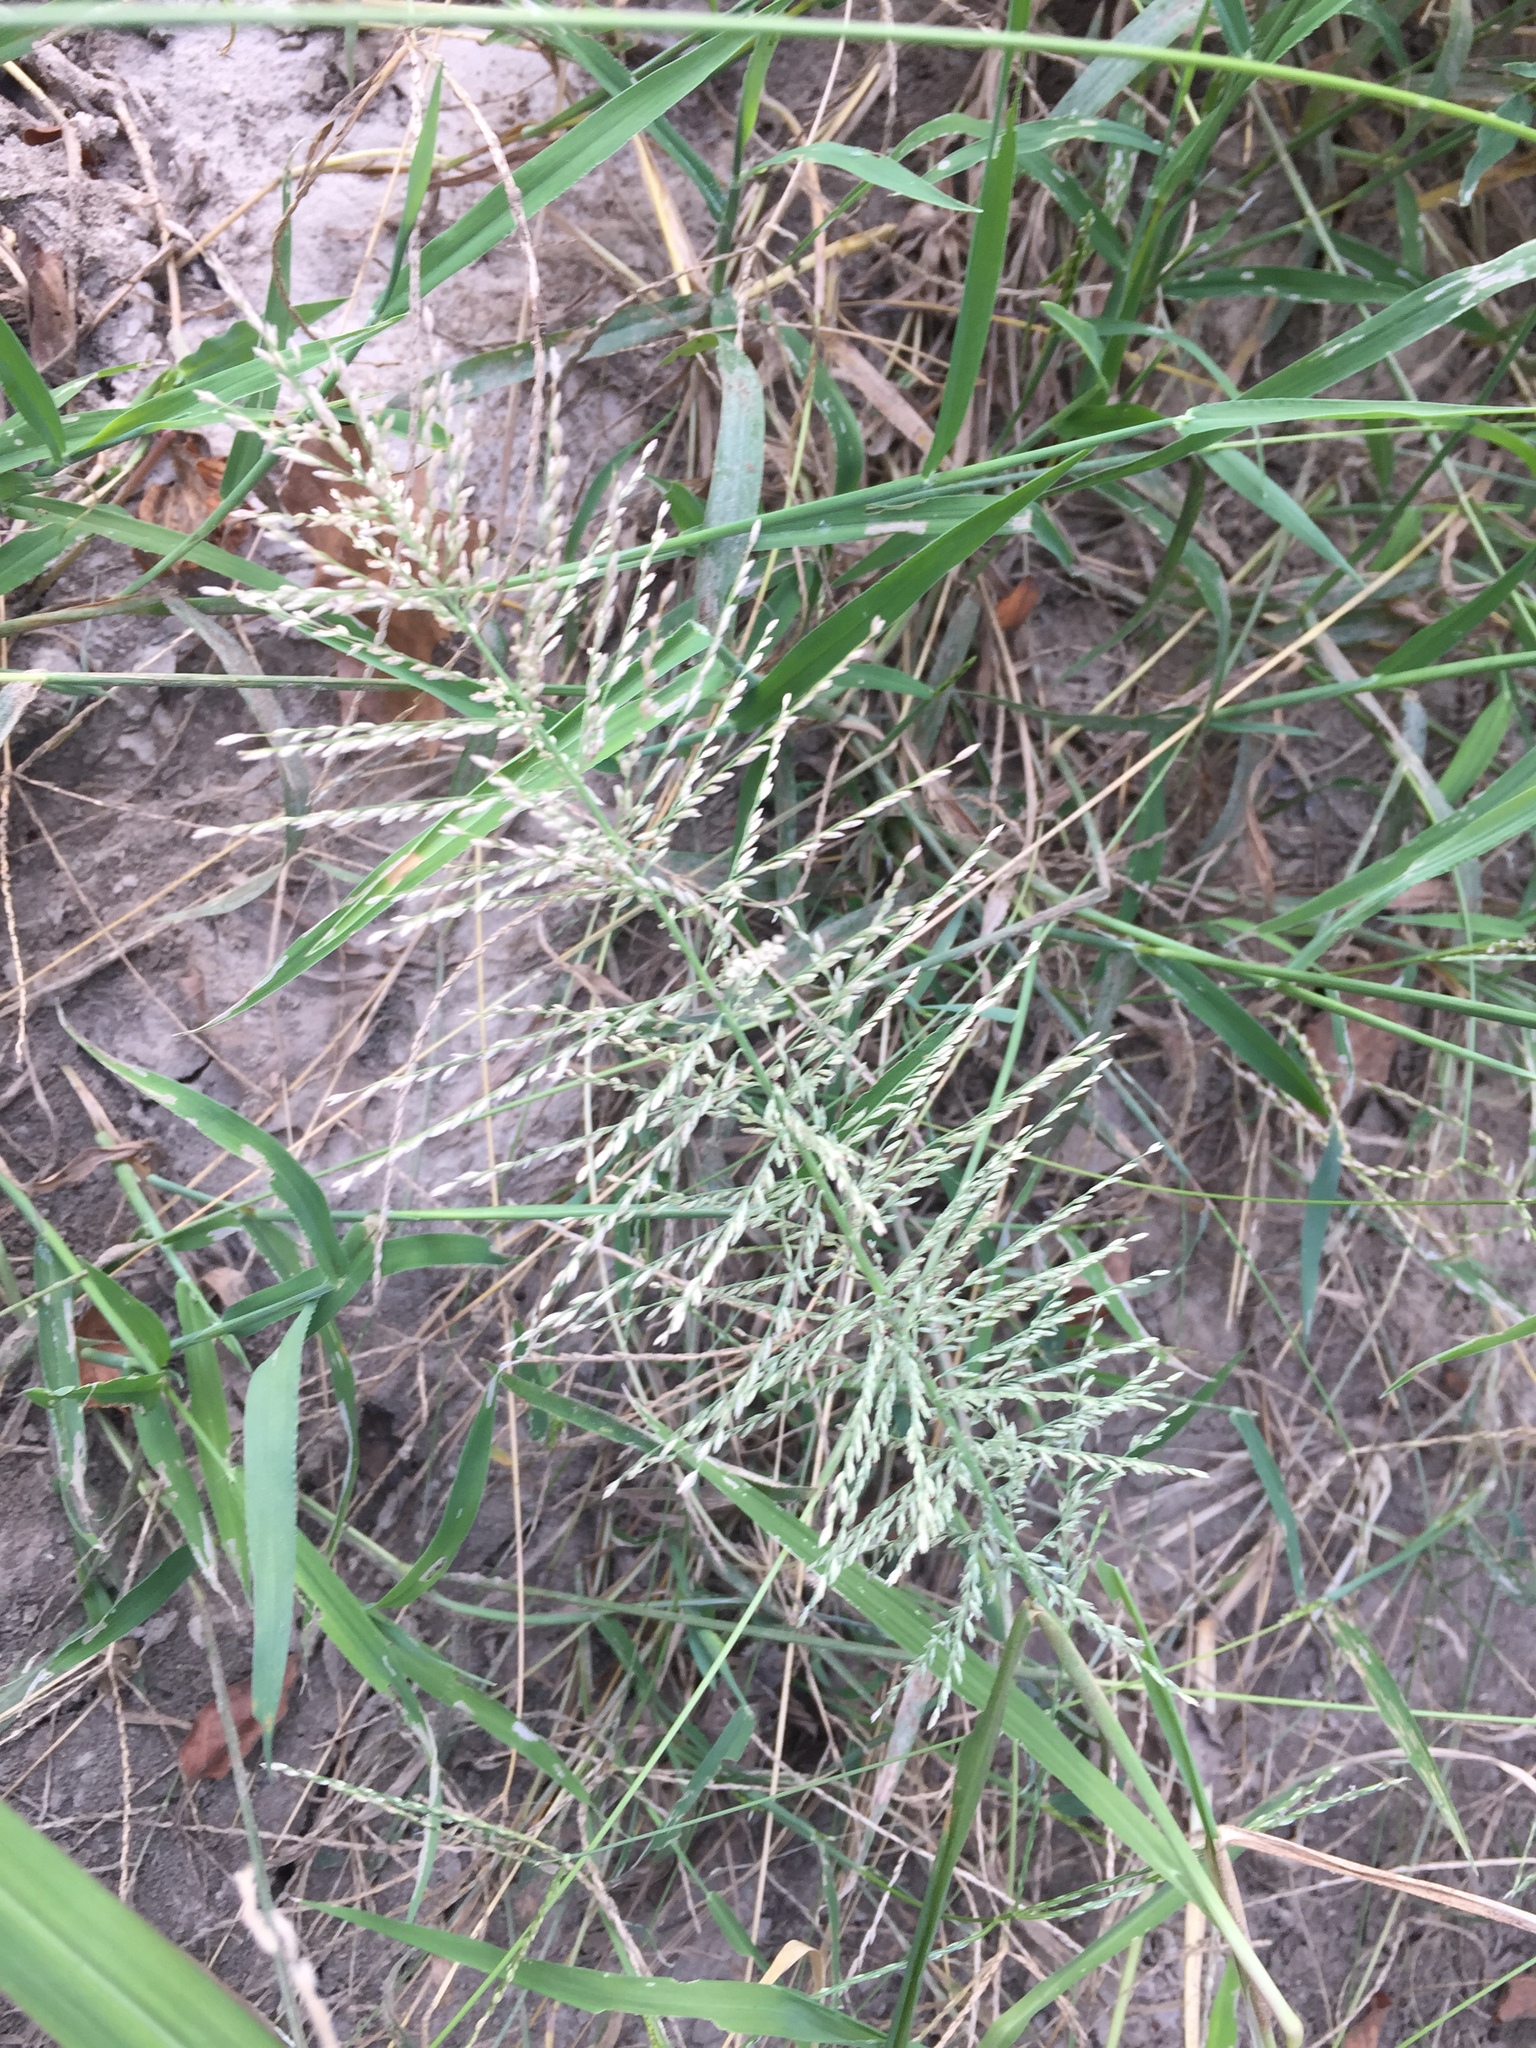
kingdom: Plantae
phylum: Tracheophyta
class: Liliopsida
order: Poales
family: Poaceae
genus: Leptochloa
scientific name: Leptochloa panicoides
